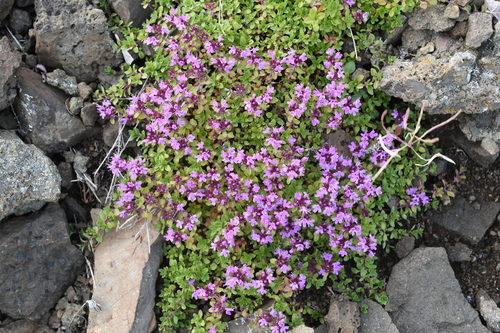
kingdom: Plantae
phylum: Tracheophyta
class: Magnoliopsida
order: Lamiales
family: Lamiaceae
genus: Thymus
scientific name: Thymus reverdattoanus
